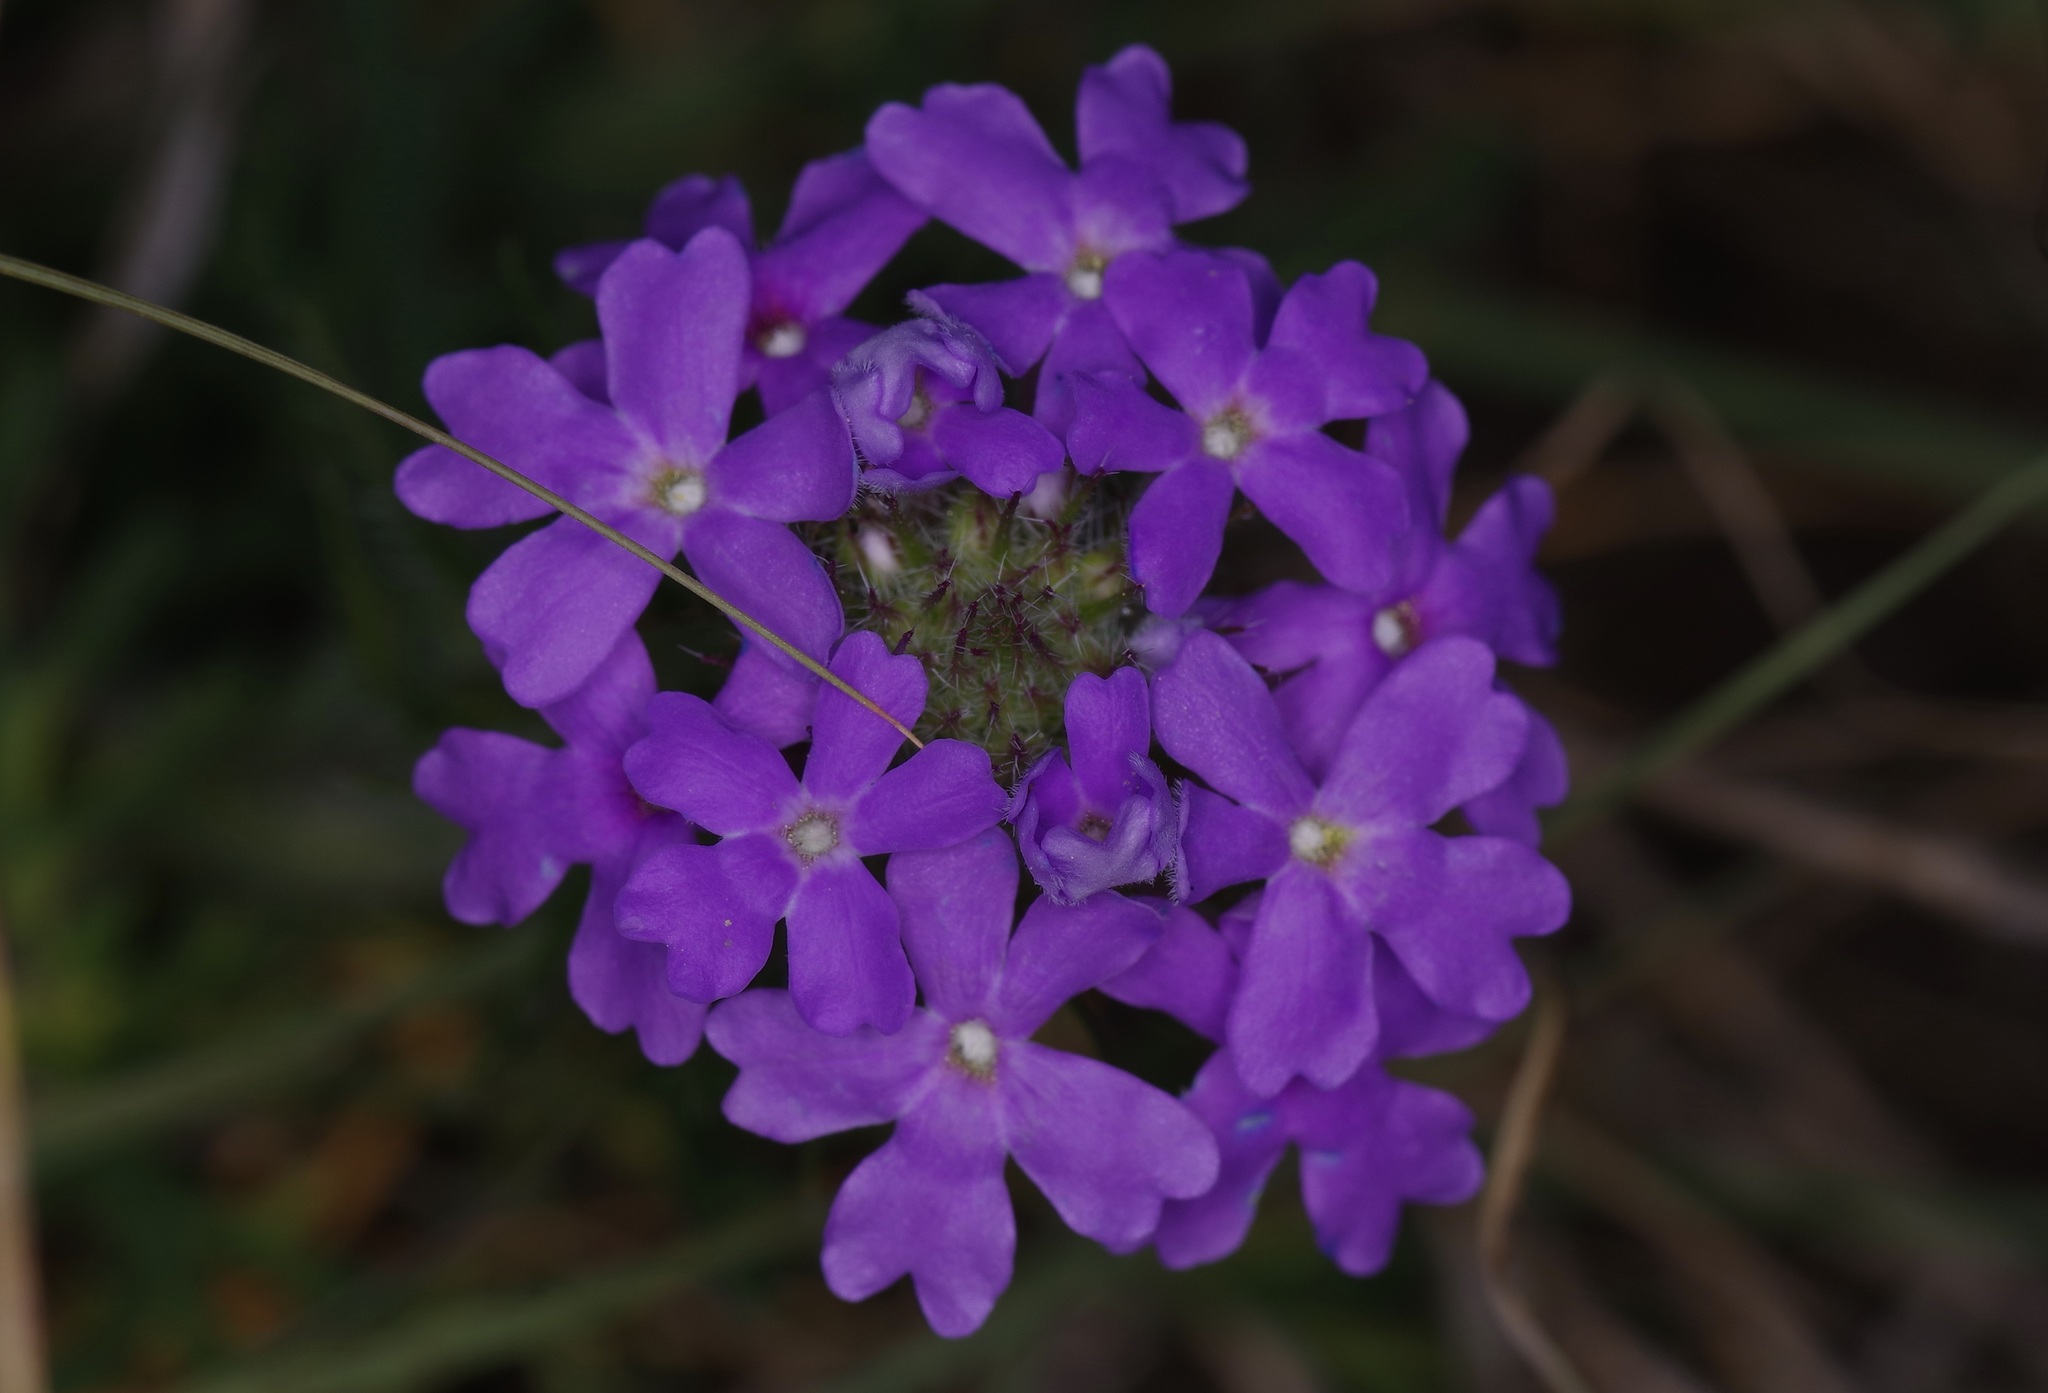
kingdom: Plantae
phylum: Tracheophyta
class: Magnoliopsida
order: Lamiales
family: Verbenaceae
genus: Verbena
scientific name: Verbena bipinnatifida
